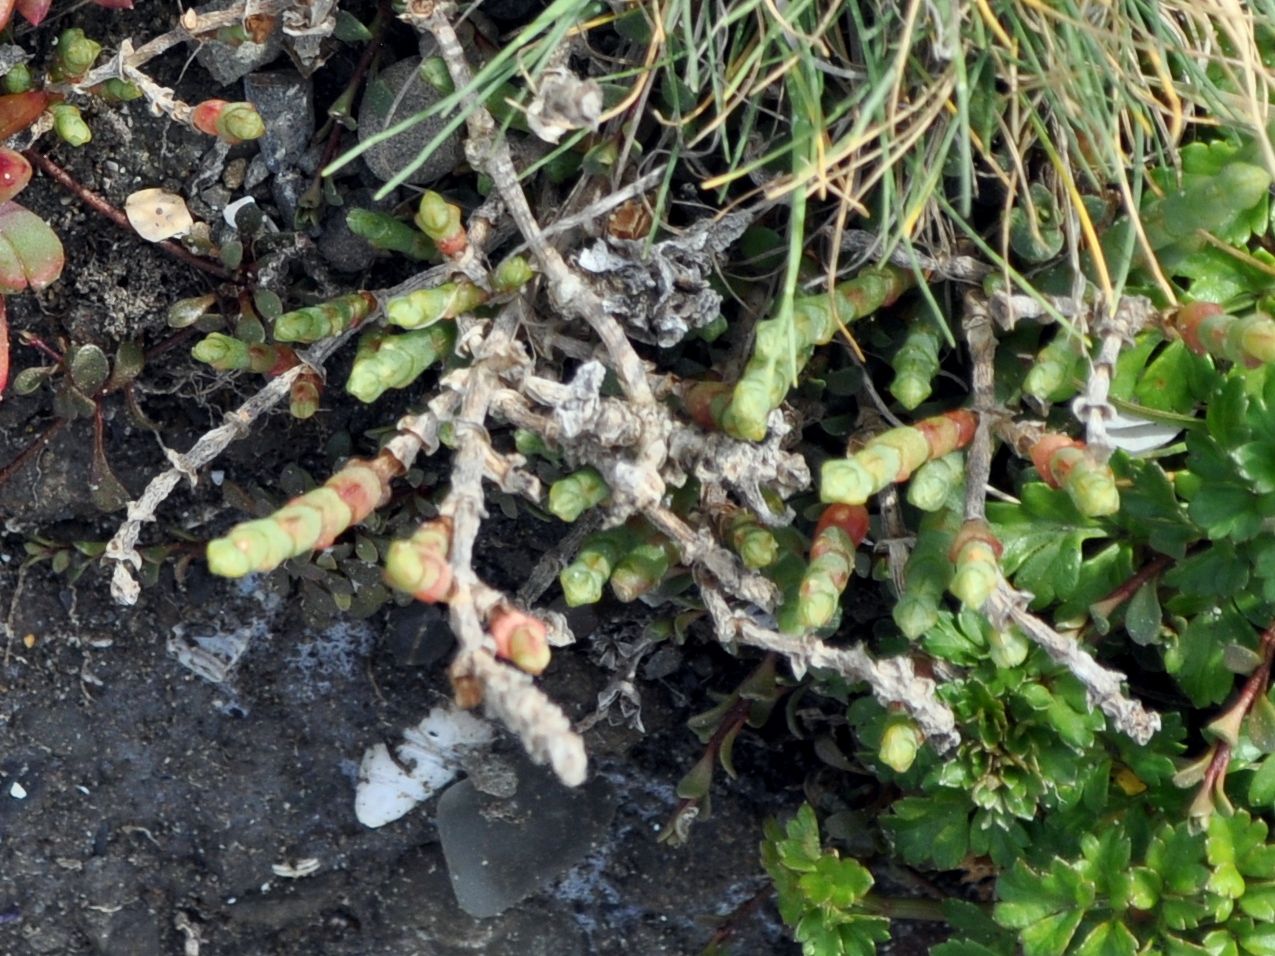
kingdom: Plantae
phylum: Tracheophyta
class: Magnoliopsida
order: Caryophyllales
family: Amaranthaceae
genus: Salicornia
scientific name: Salicornia quinqueflora
